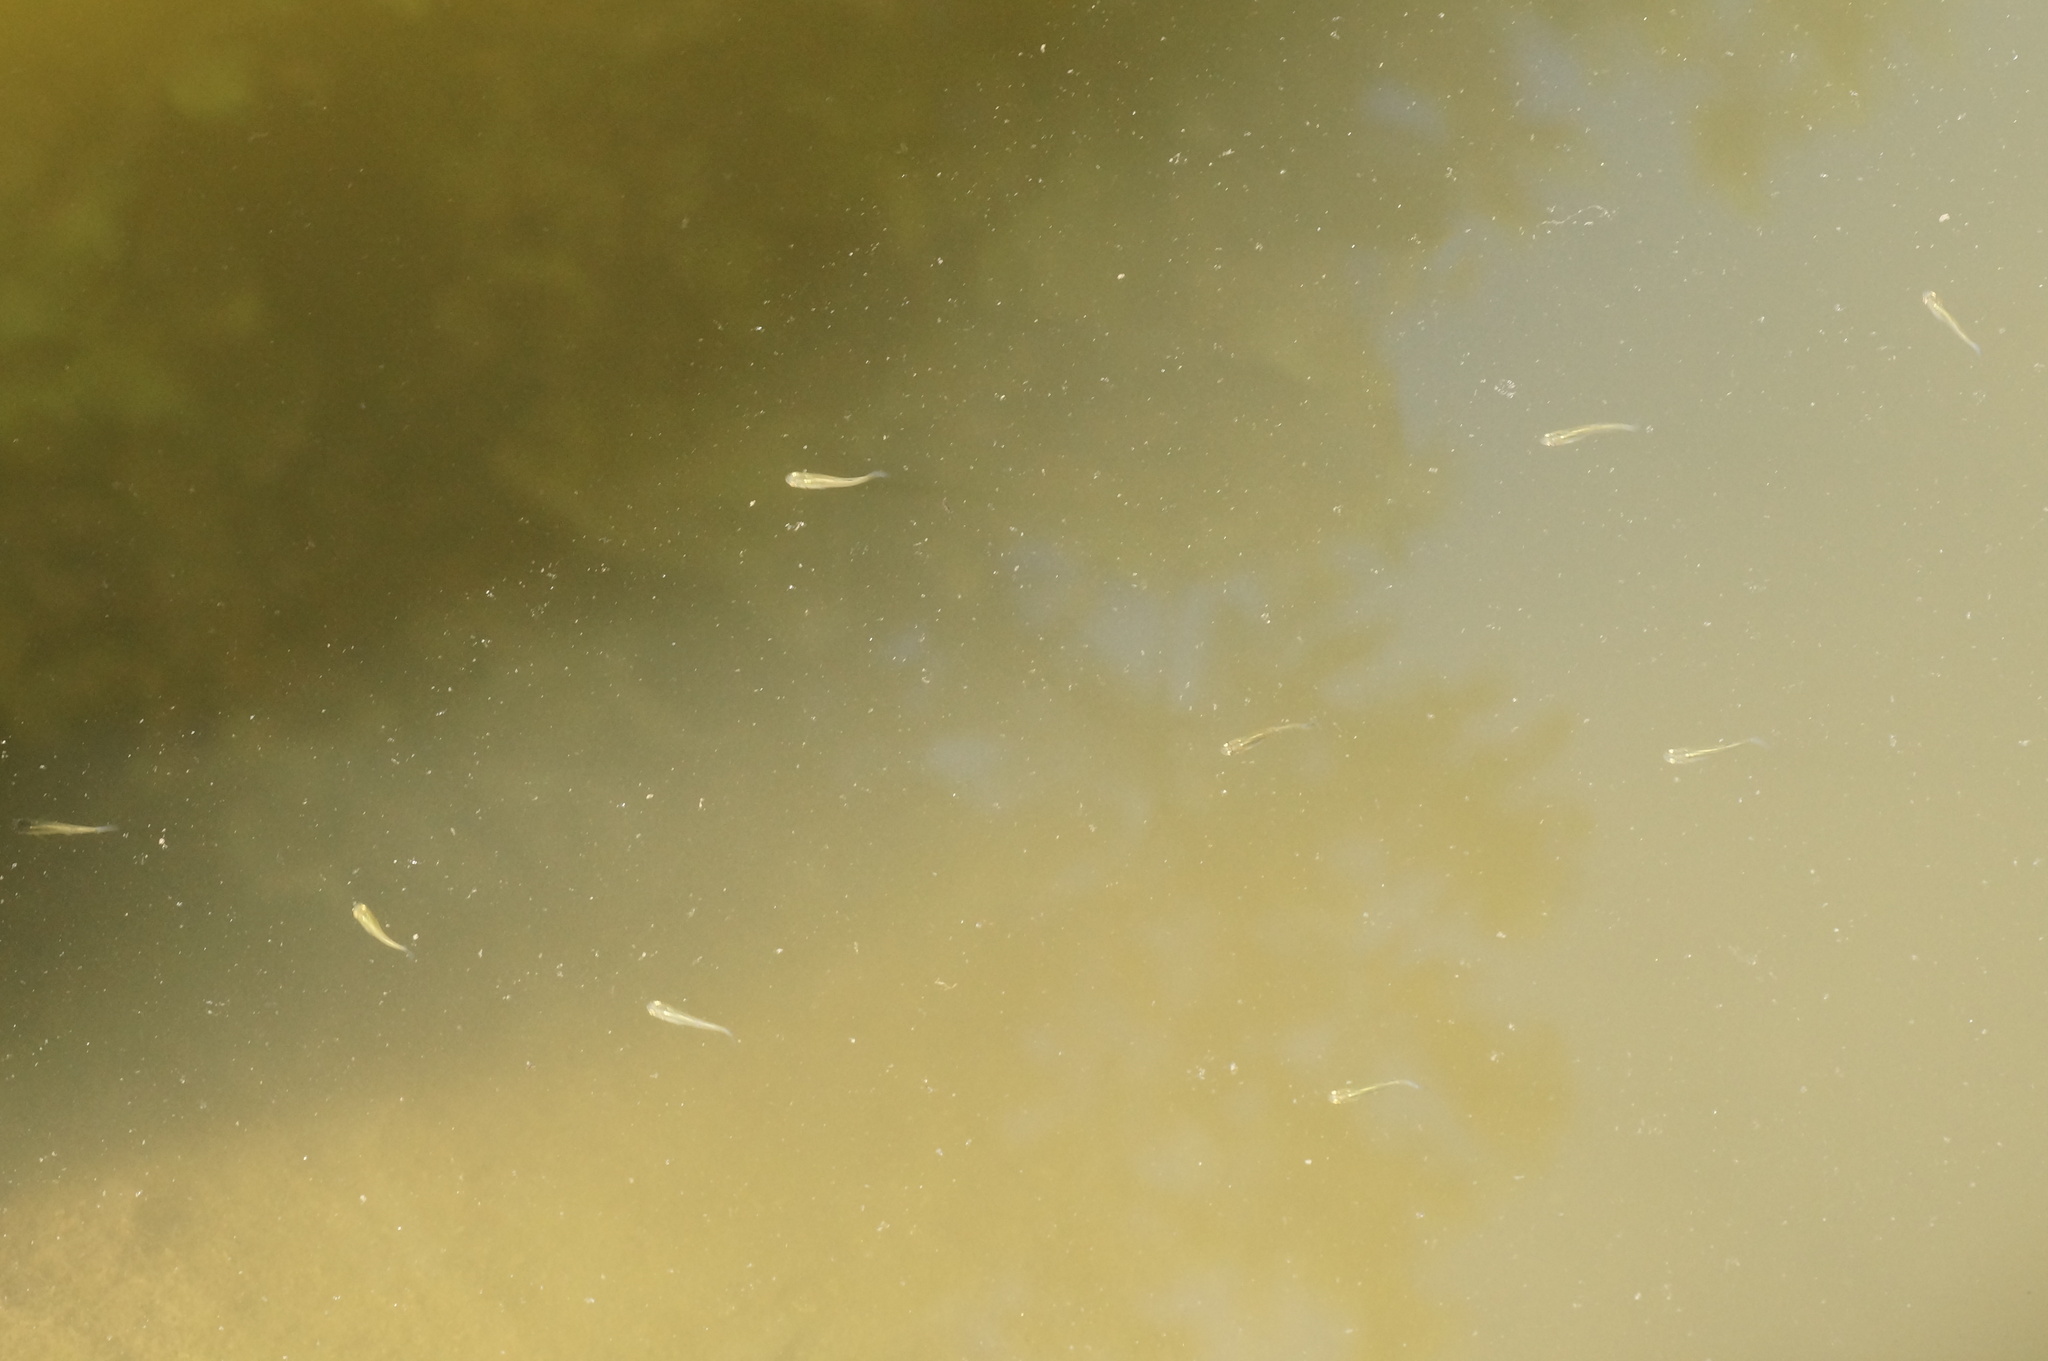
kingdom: Animalia
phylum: Chordata
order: Cyprinodontiformes
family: Poeciliidae
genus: Gambusia
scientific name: Gambusia holbrooki
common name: Eastern mosquitofish
